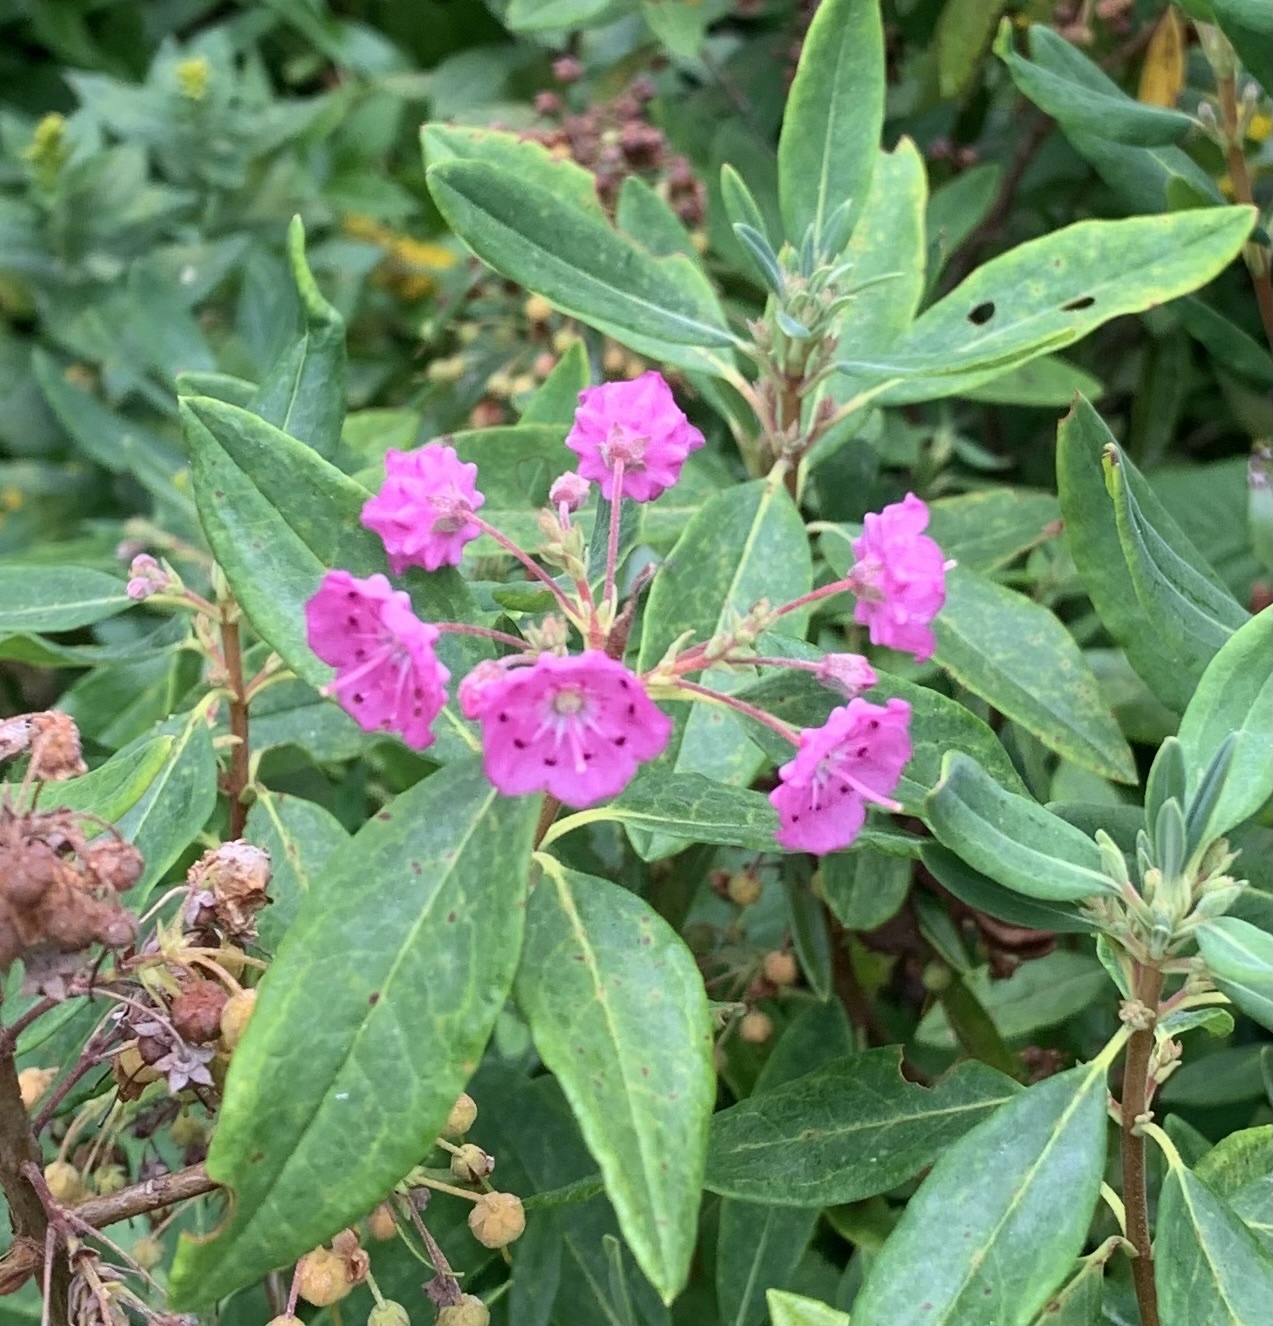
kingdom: Plantae
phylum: Tracheophyta
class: Magnoliopsida
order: Ericales
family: Ericaceae
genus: Kalmia
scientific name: Kalmia angustifolia
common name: Sheep-laurel
